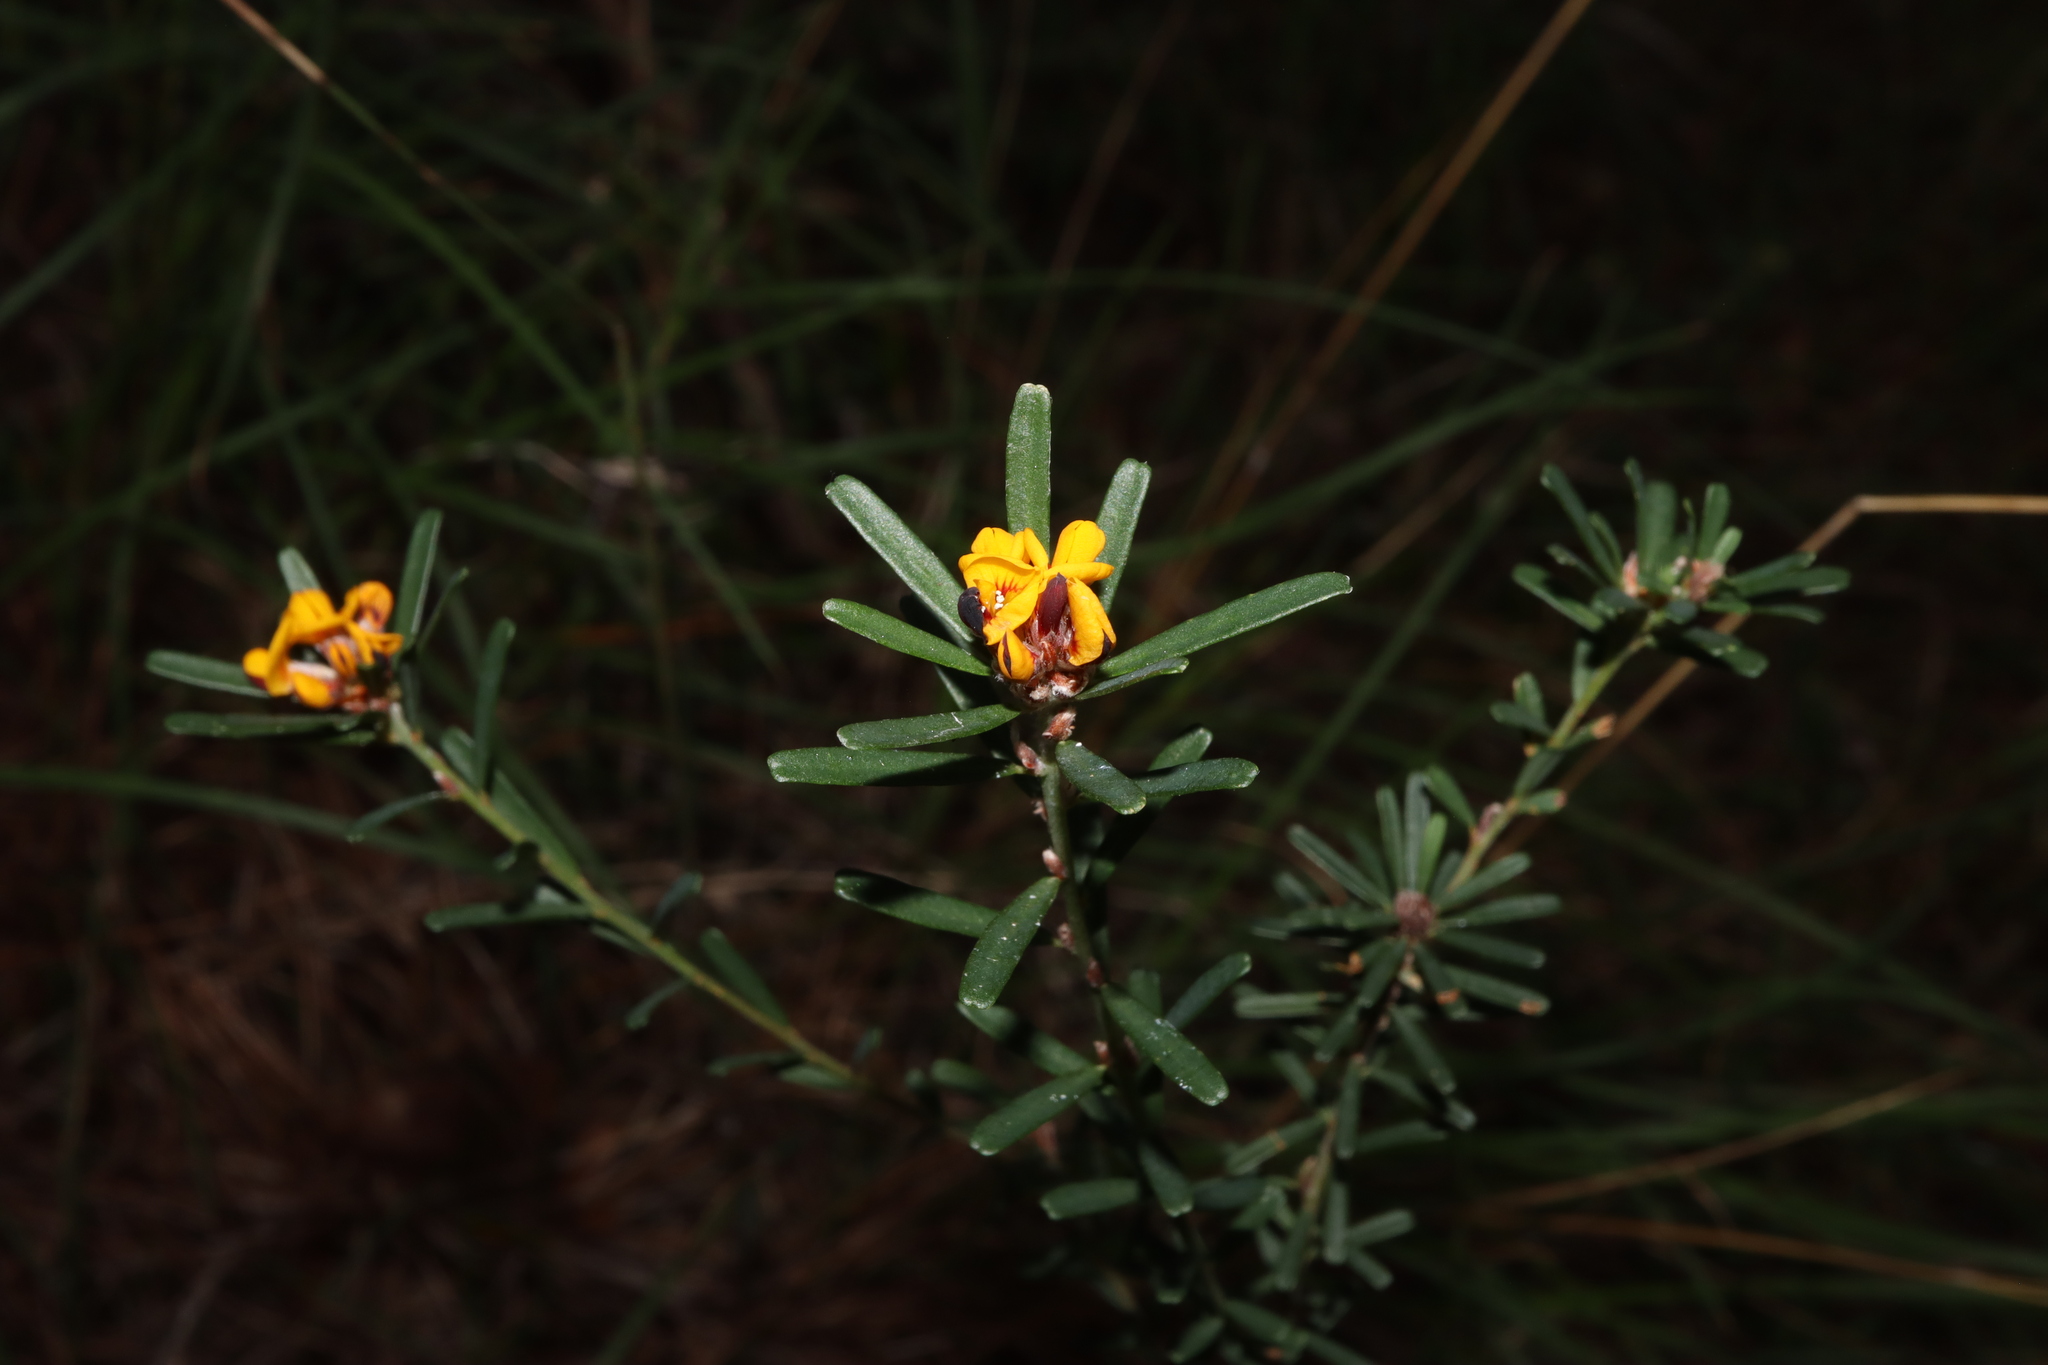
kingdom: Plantae
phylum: Tracheophyta
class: Magnoliopsida
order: Fabales
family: Fabaceae
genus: Pultenaea
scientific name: Pultenaea retusa
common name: Blunt bush-pea
